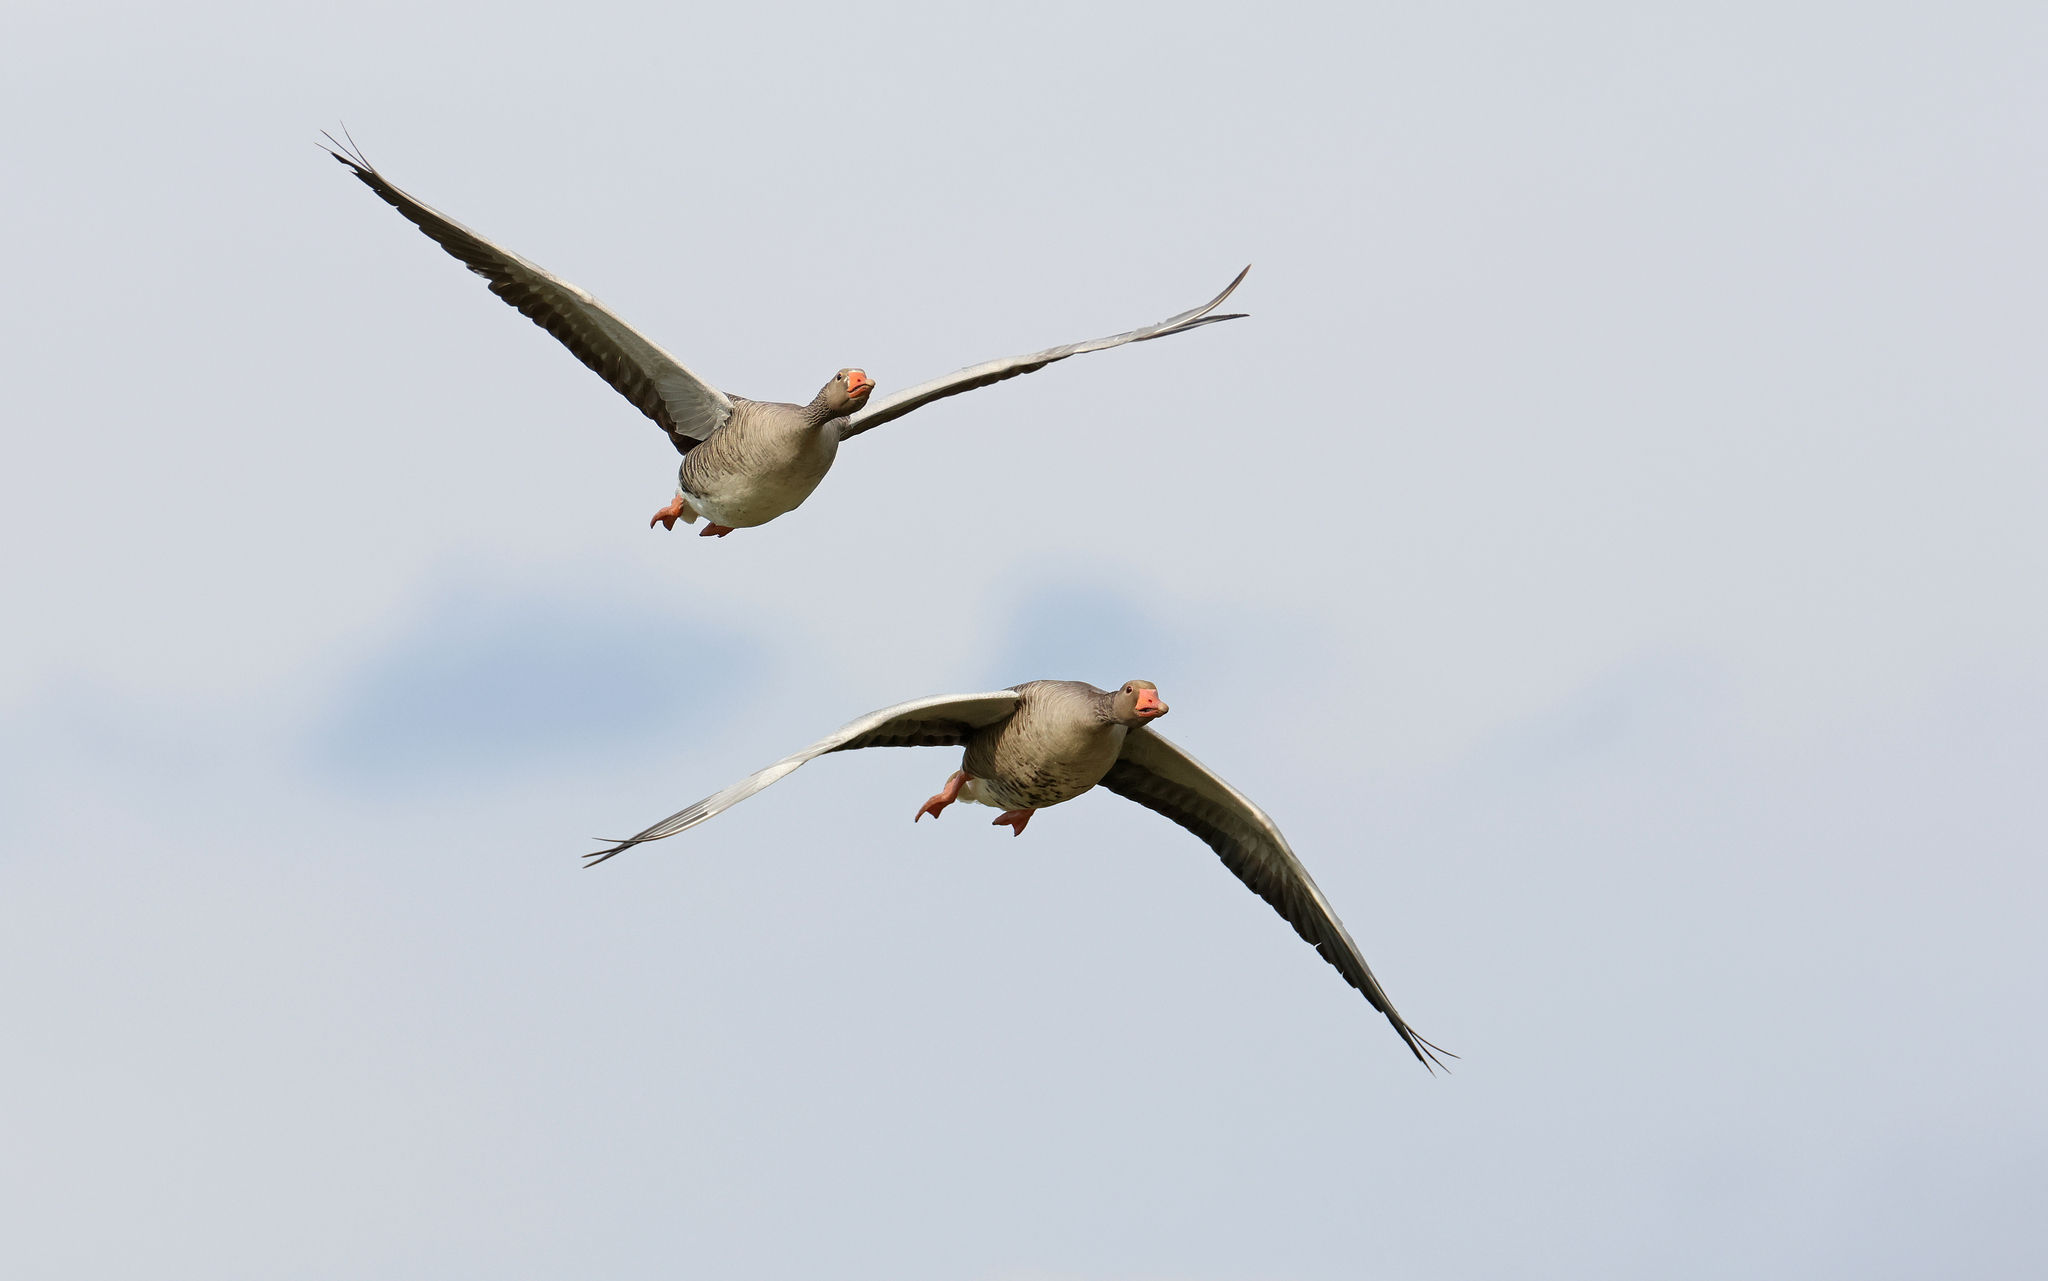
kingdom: Animalia
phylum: Chordata
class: Aves
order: Anseriformes
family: Anatidae
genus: Anser
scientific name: Anser anser
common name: Greylag goose
